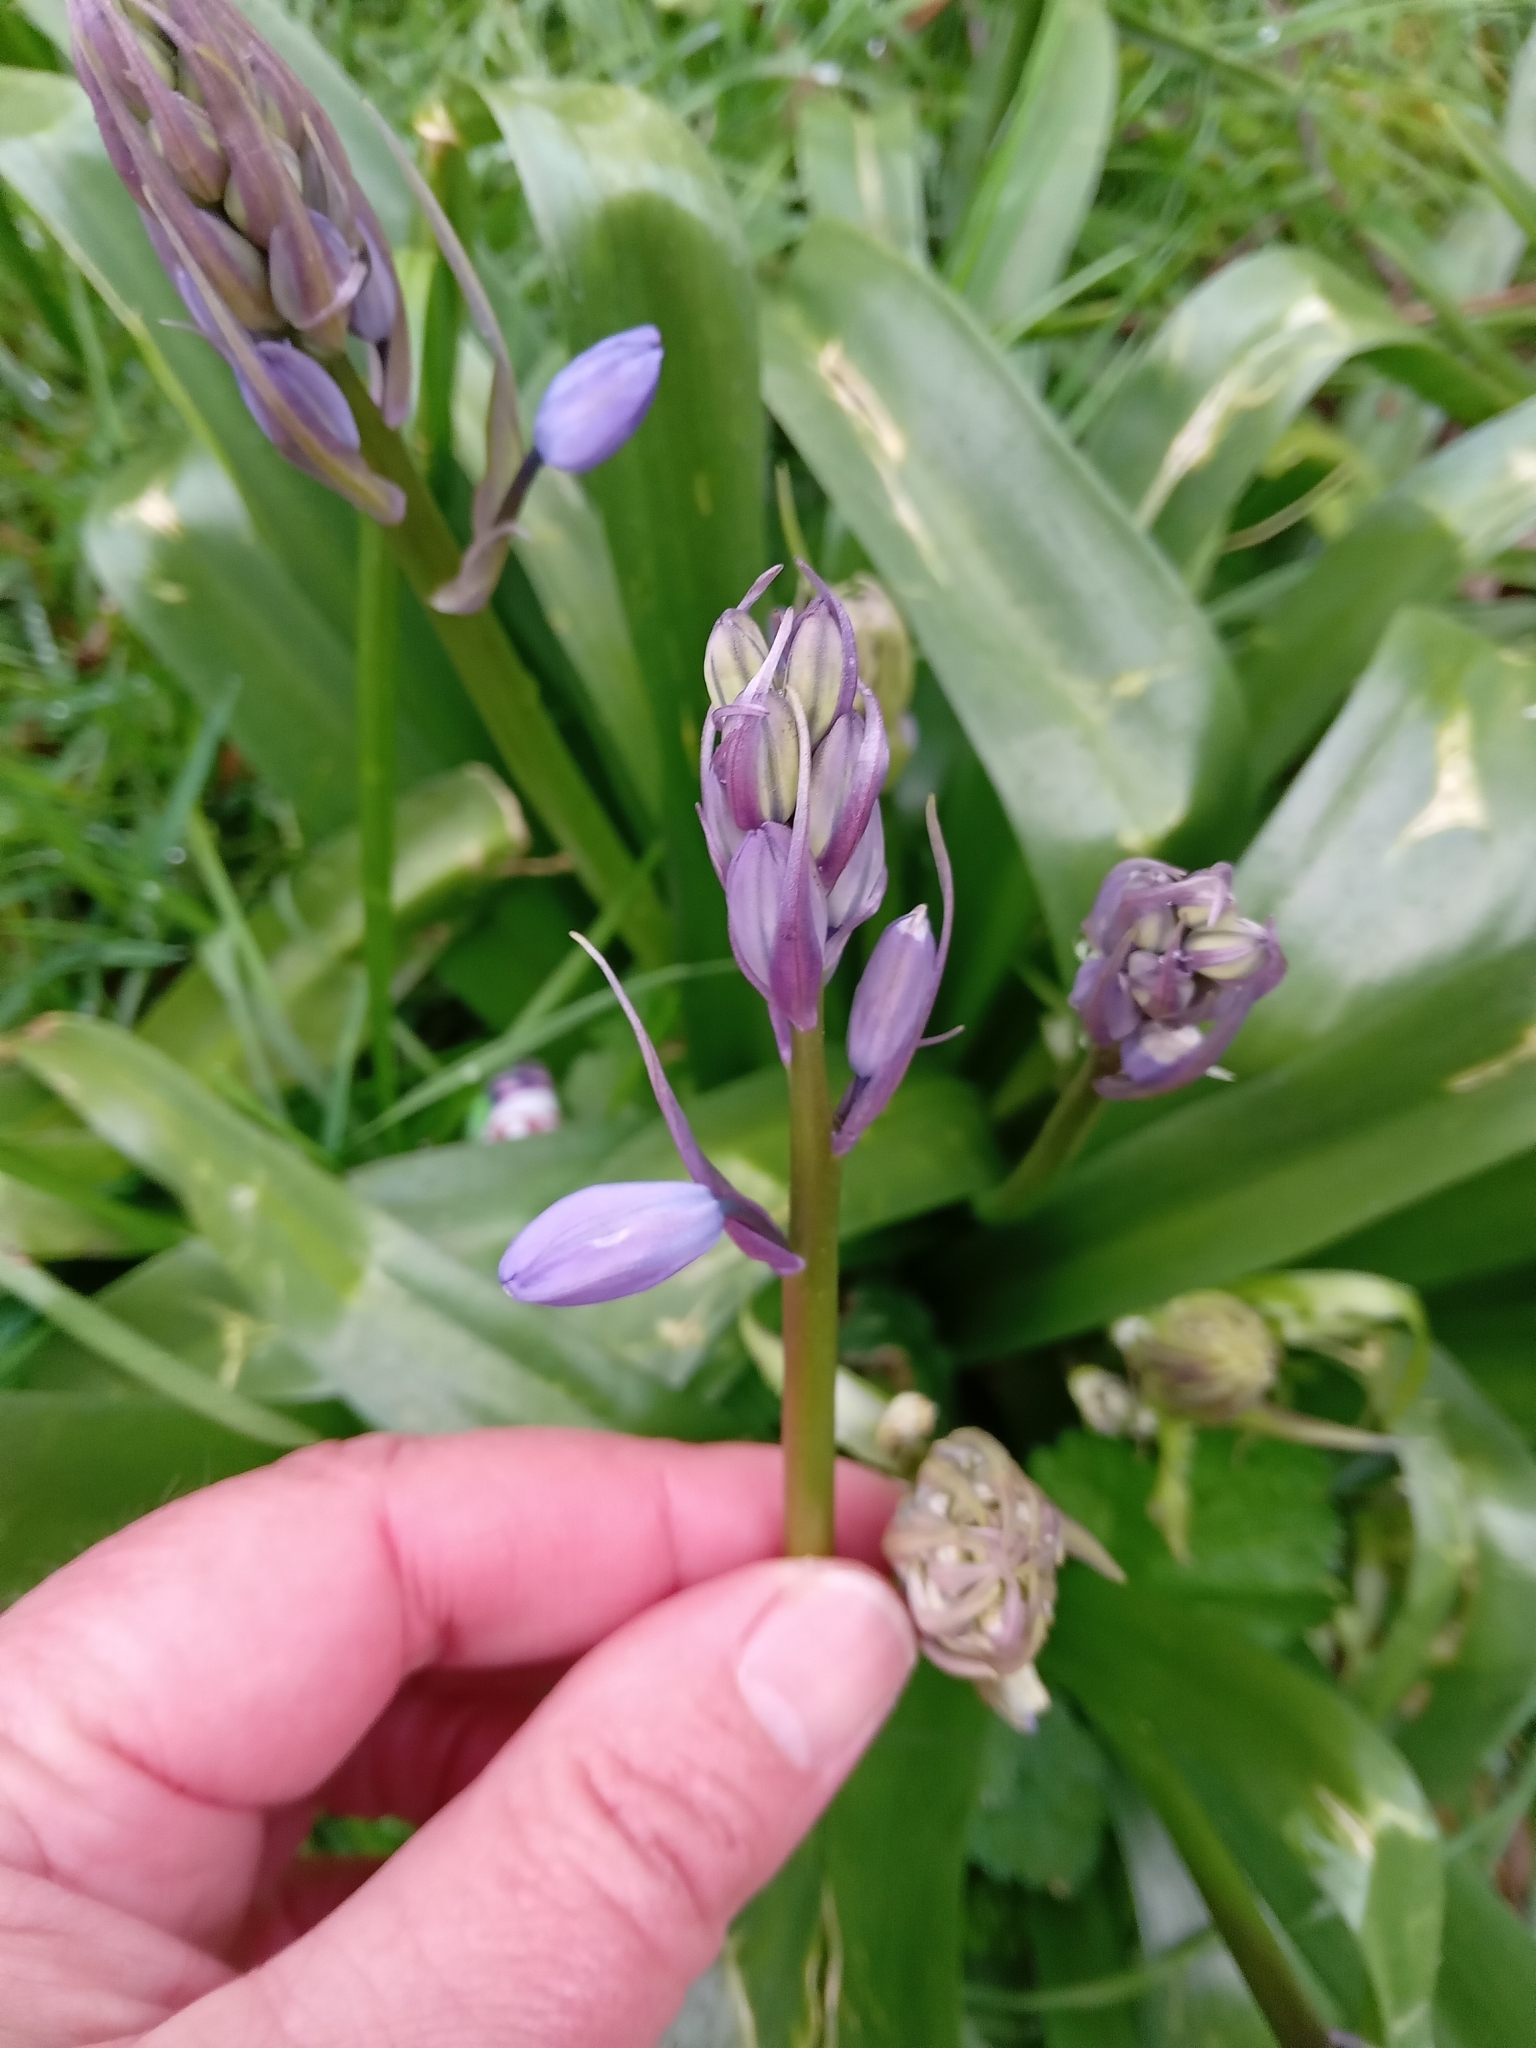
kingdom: Plantae
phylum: Tracheophyta
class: Liliopsida
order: Asparagales
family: Asparagaceae
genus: Hyacinthoides
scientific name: Hyacinthoides massartiana
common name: Hyacinthoides
